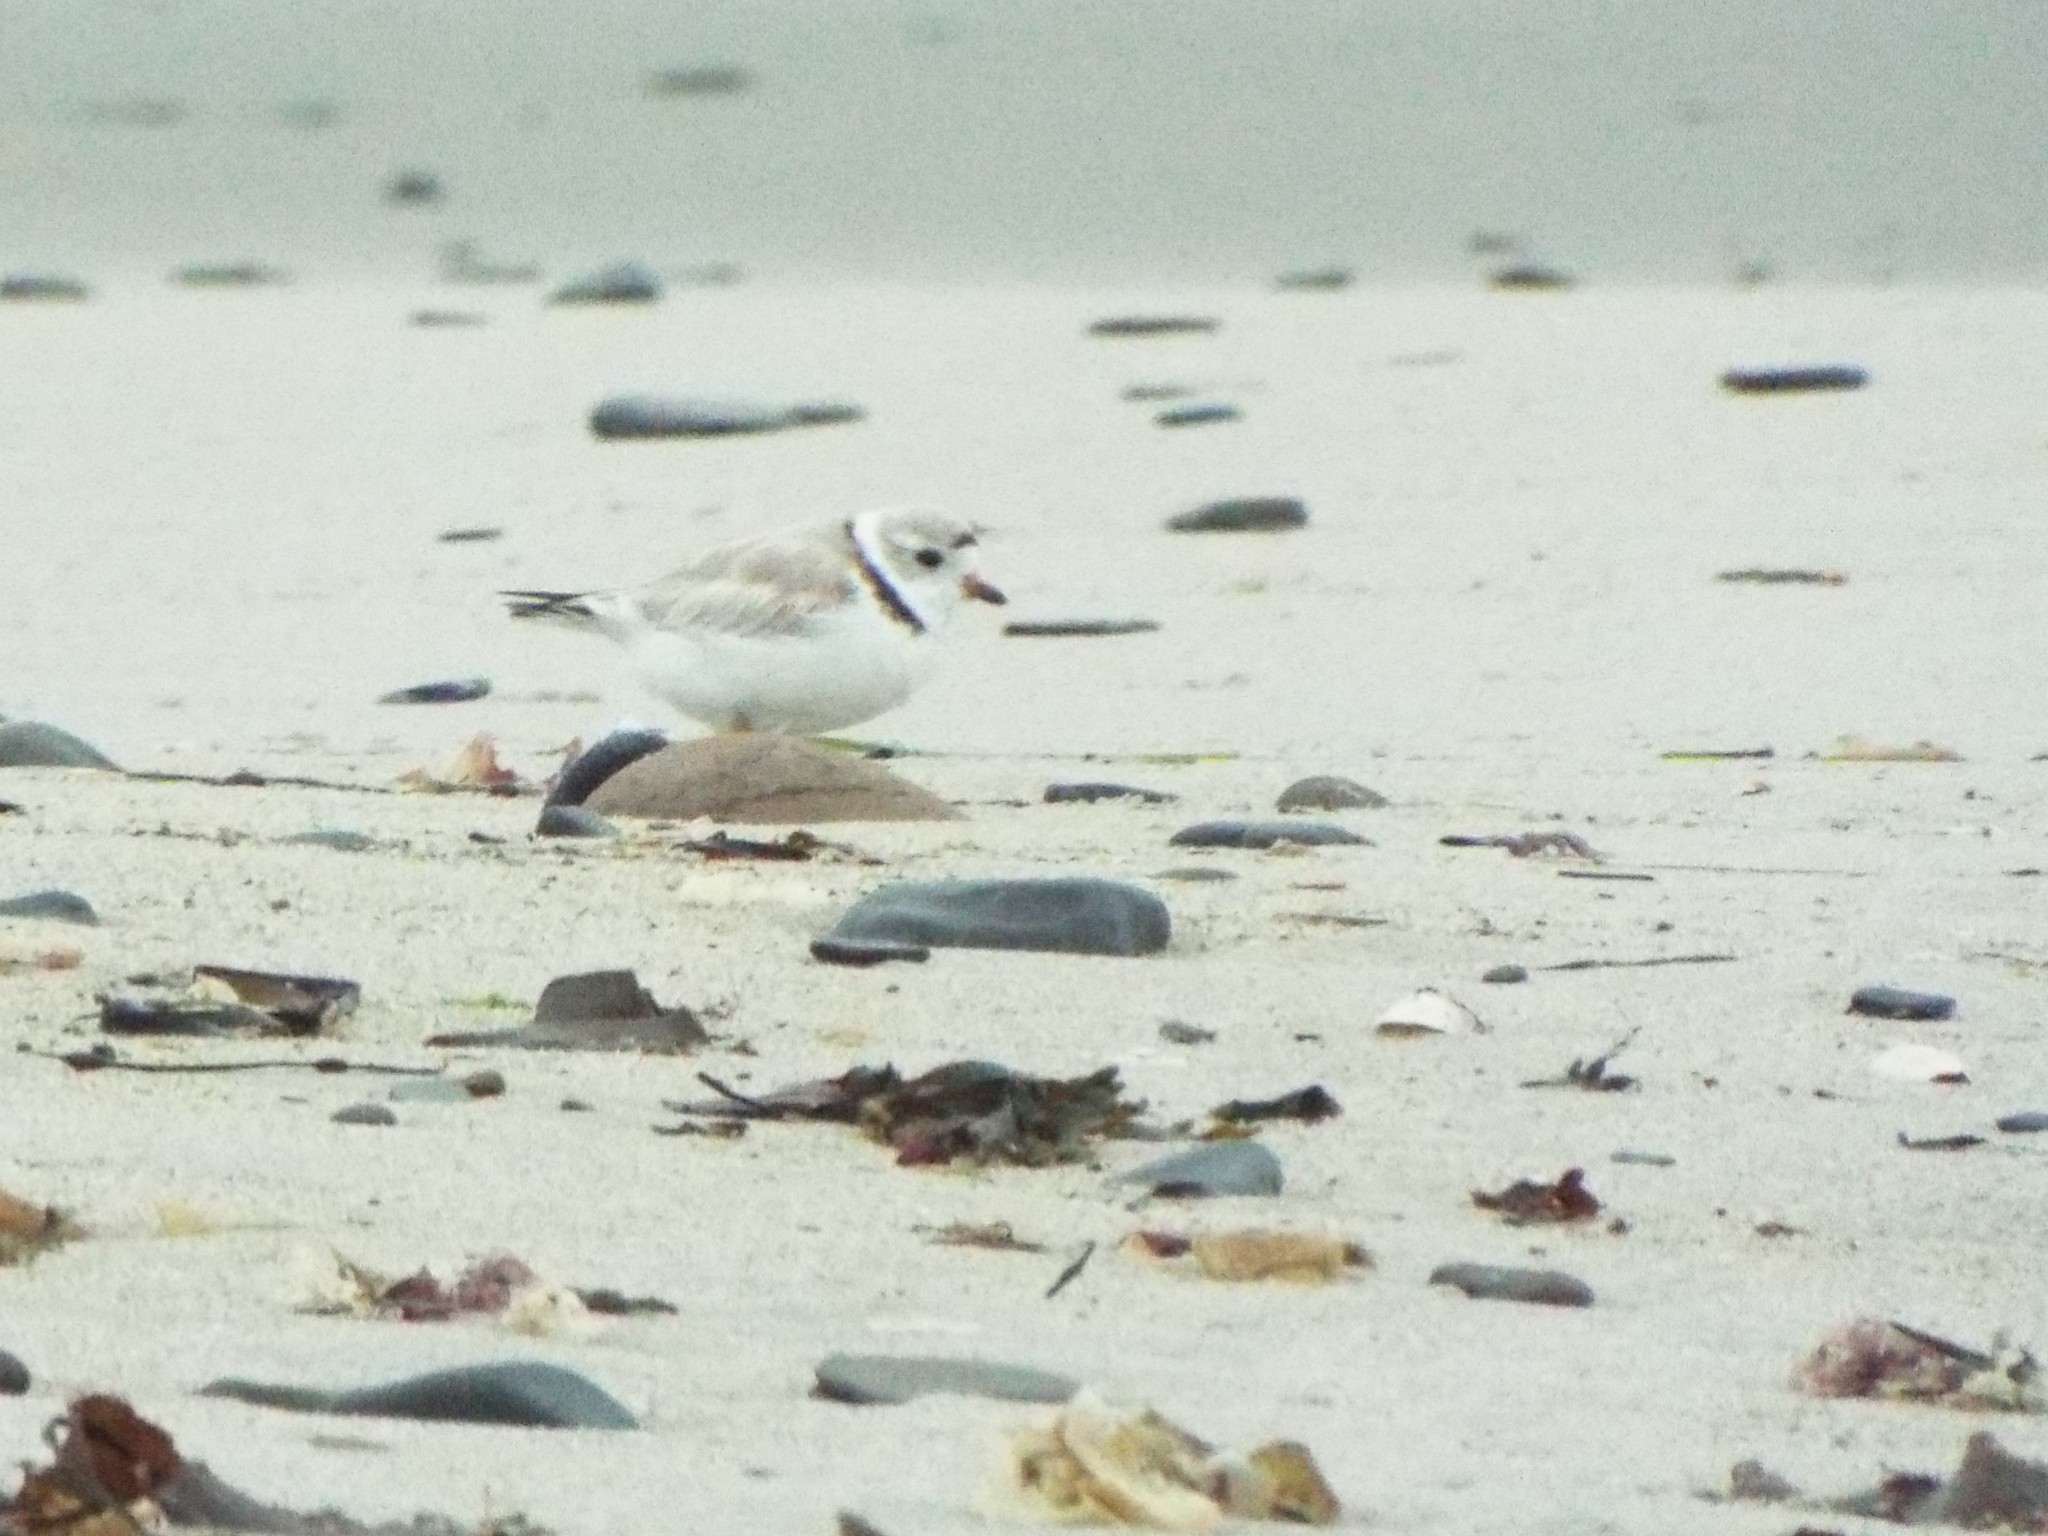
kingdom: Animalia
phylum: Chordata
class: Aves
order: Charadriiformes
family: Charadriidae
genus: Charadrius
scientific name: Charadrius melodus
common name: Piping plover
